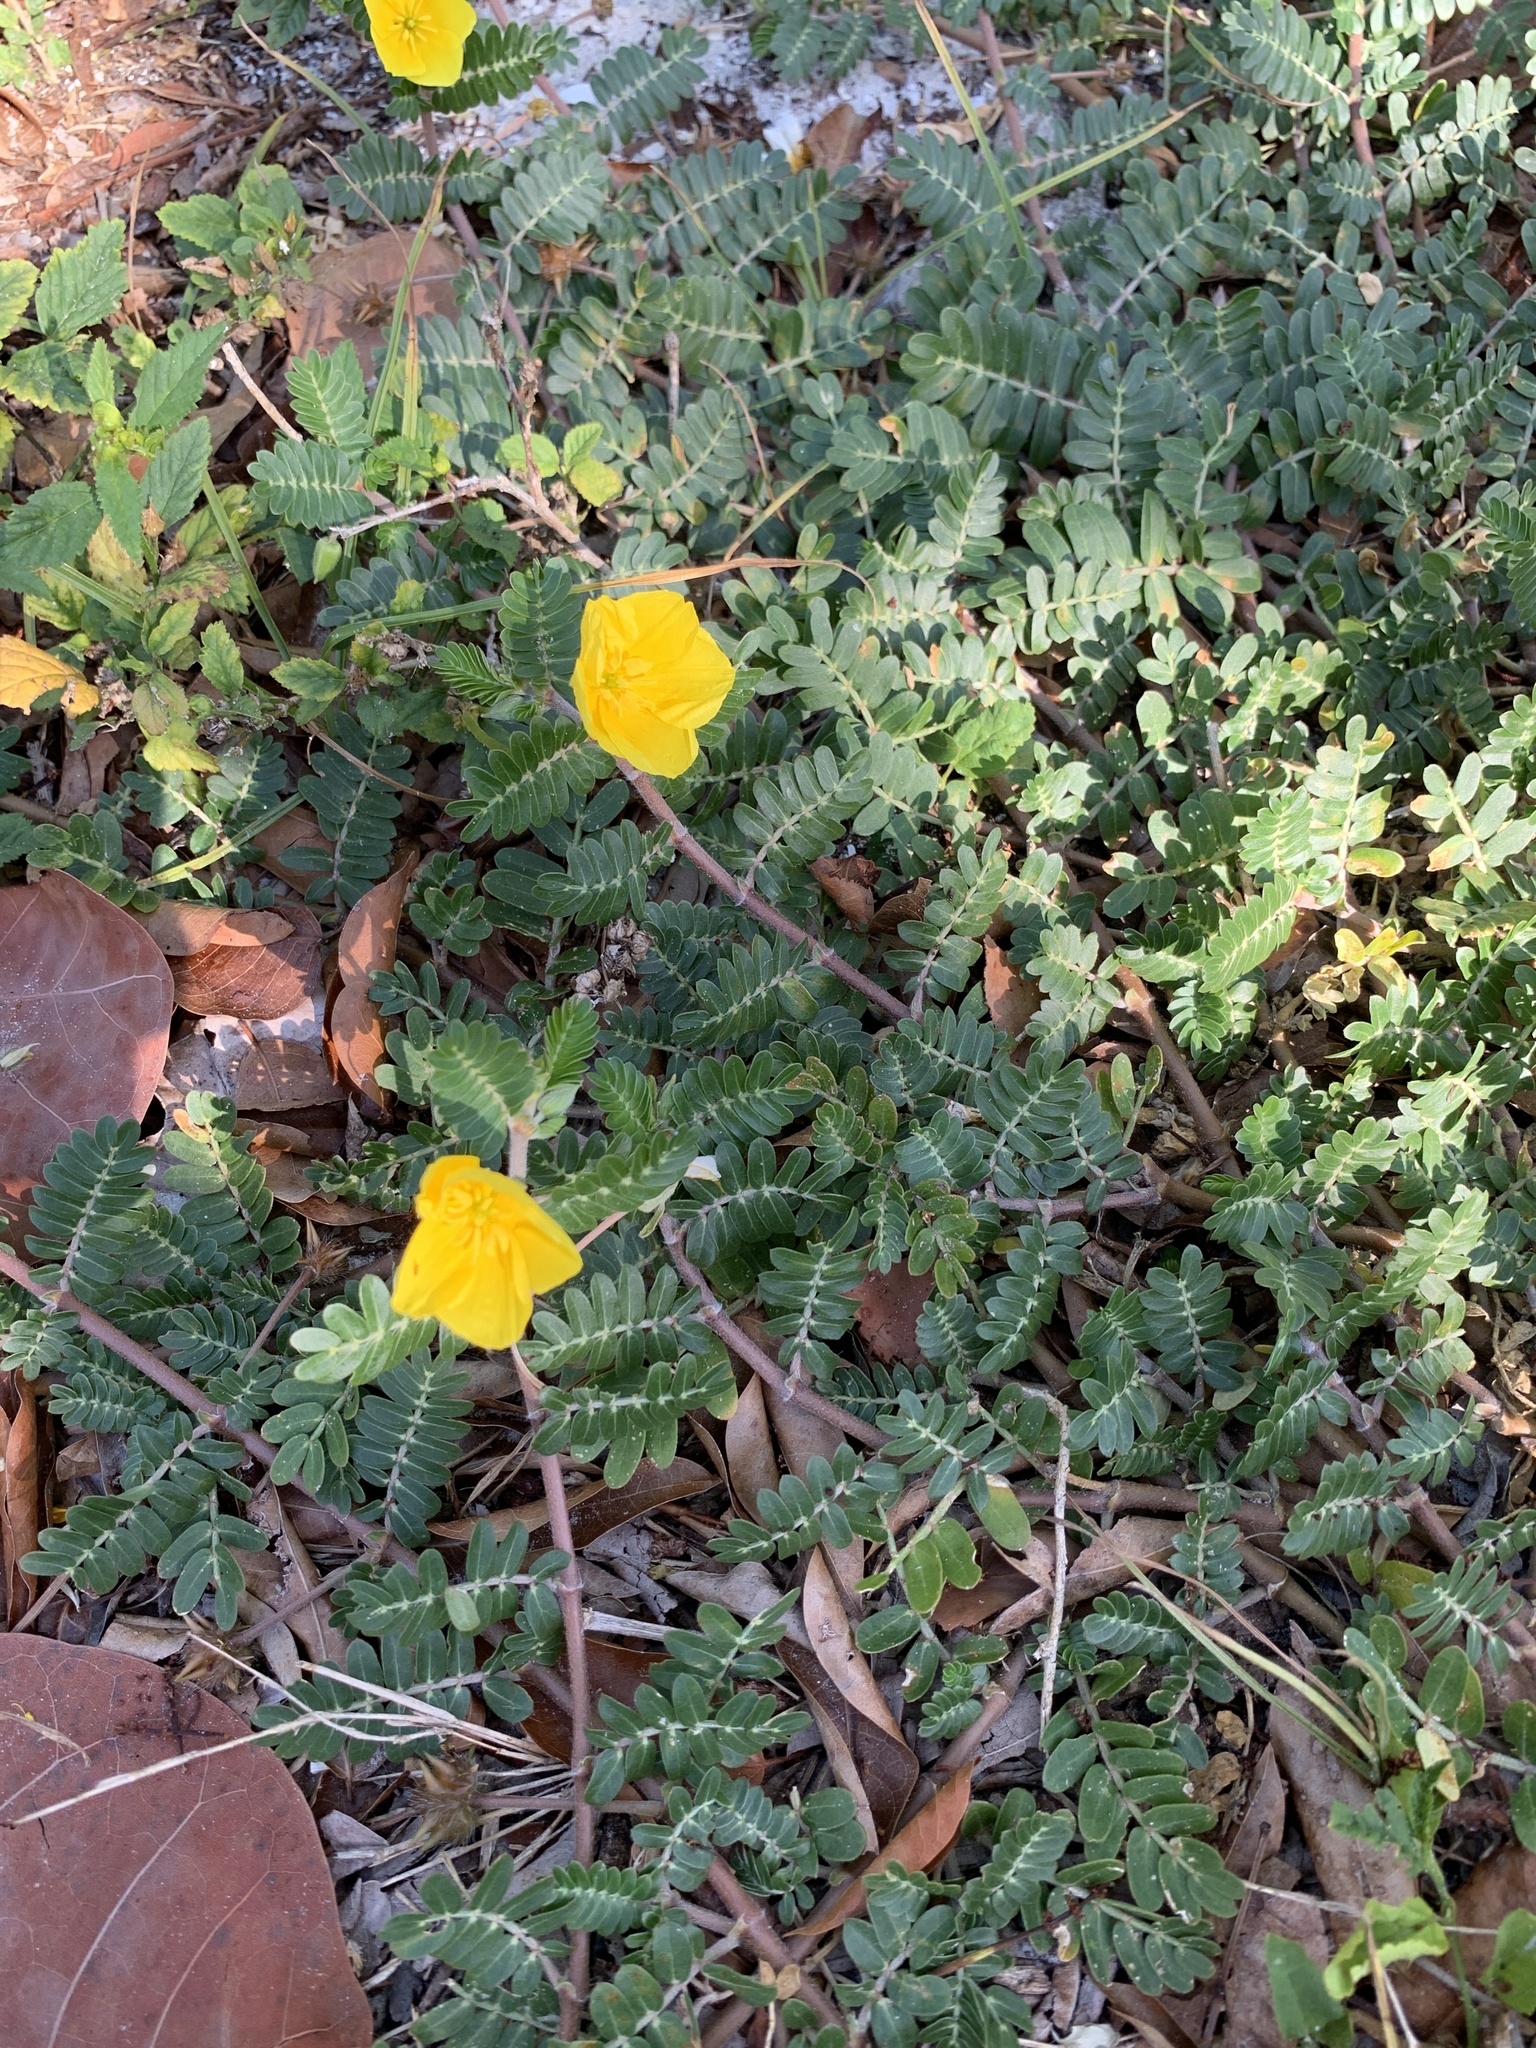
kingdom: Plantae
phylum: Tracheophyta
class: Magnoliopsida
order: Zygophyllales
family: Zygophyllaceae
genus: Tribulus
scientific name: Tribulus cistoides
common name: Jamaican feverplant
